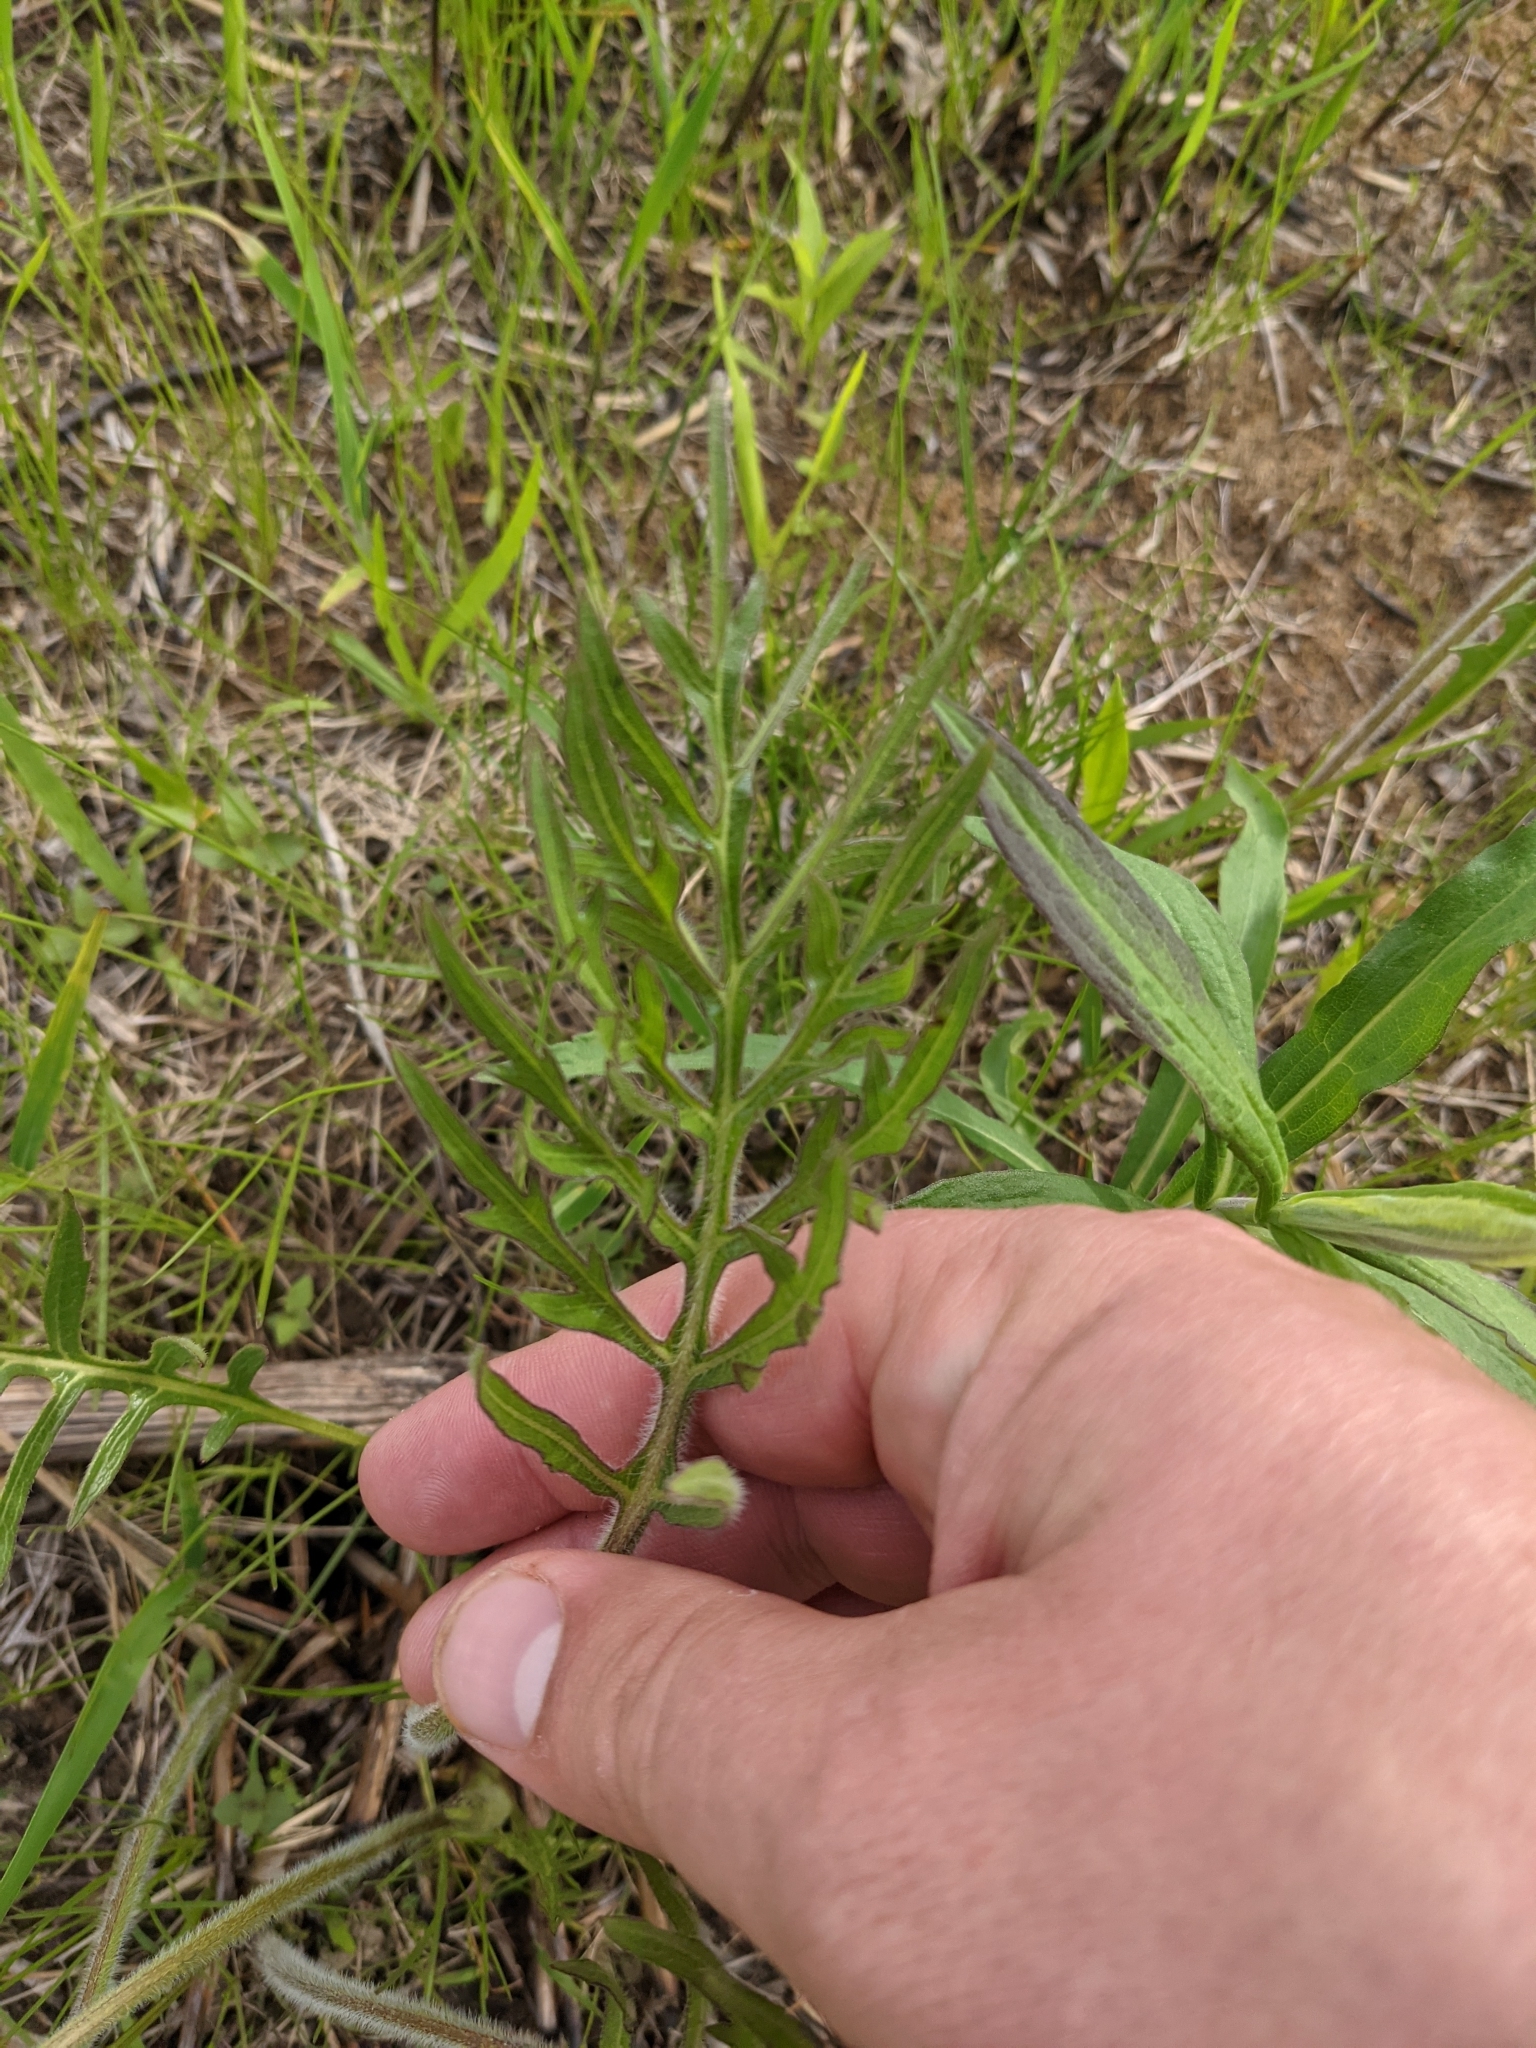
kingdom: Plantae
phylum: Tracheophyta
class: Magnoliopsida
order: Asterales
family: Asteraceae
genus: Silphium
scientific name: Silphium laciniatum
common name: Polarplant
